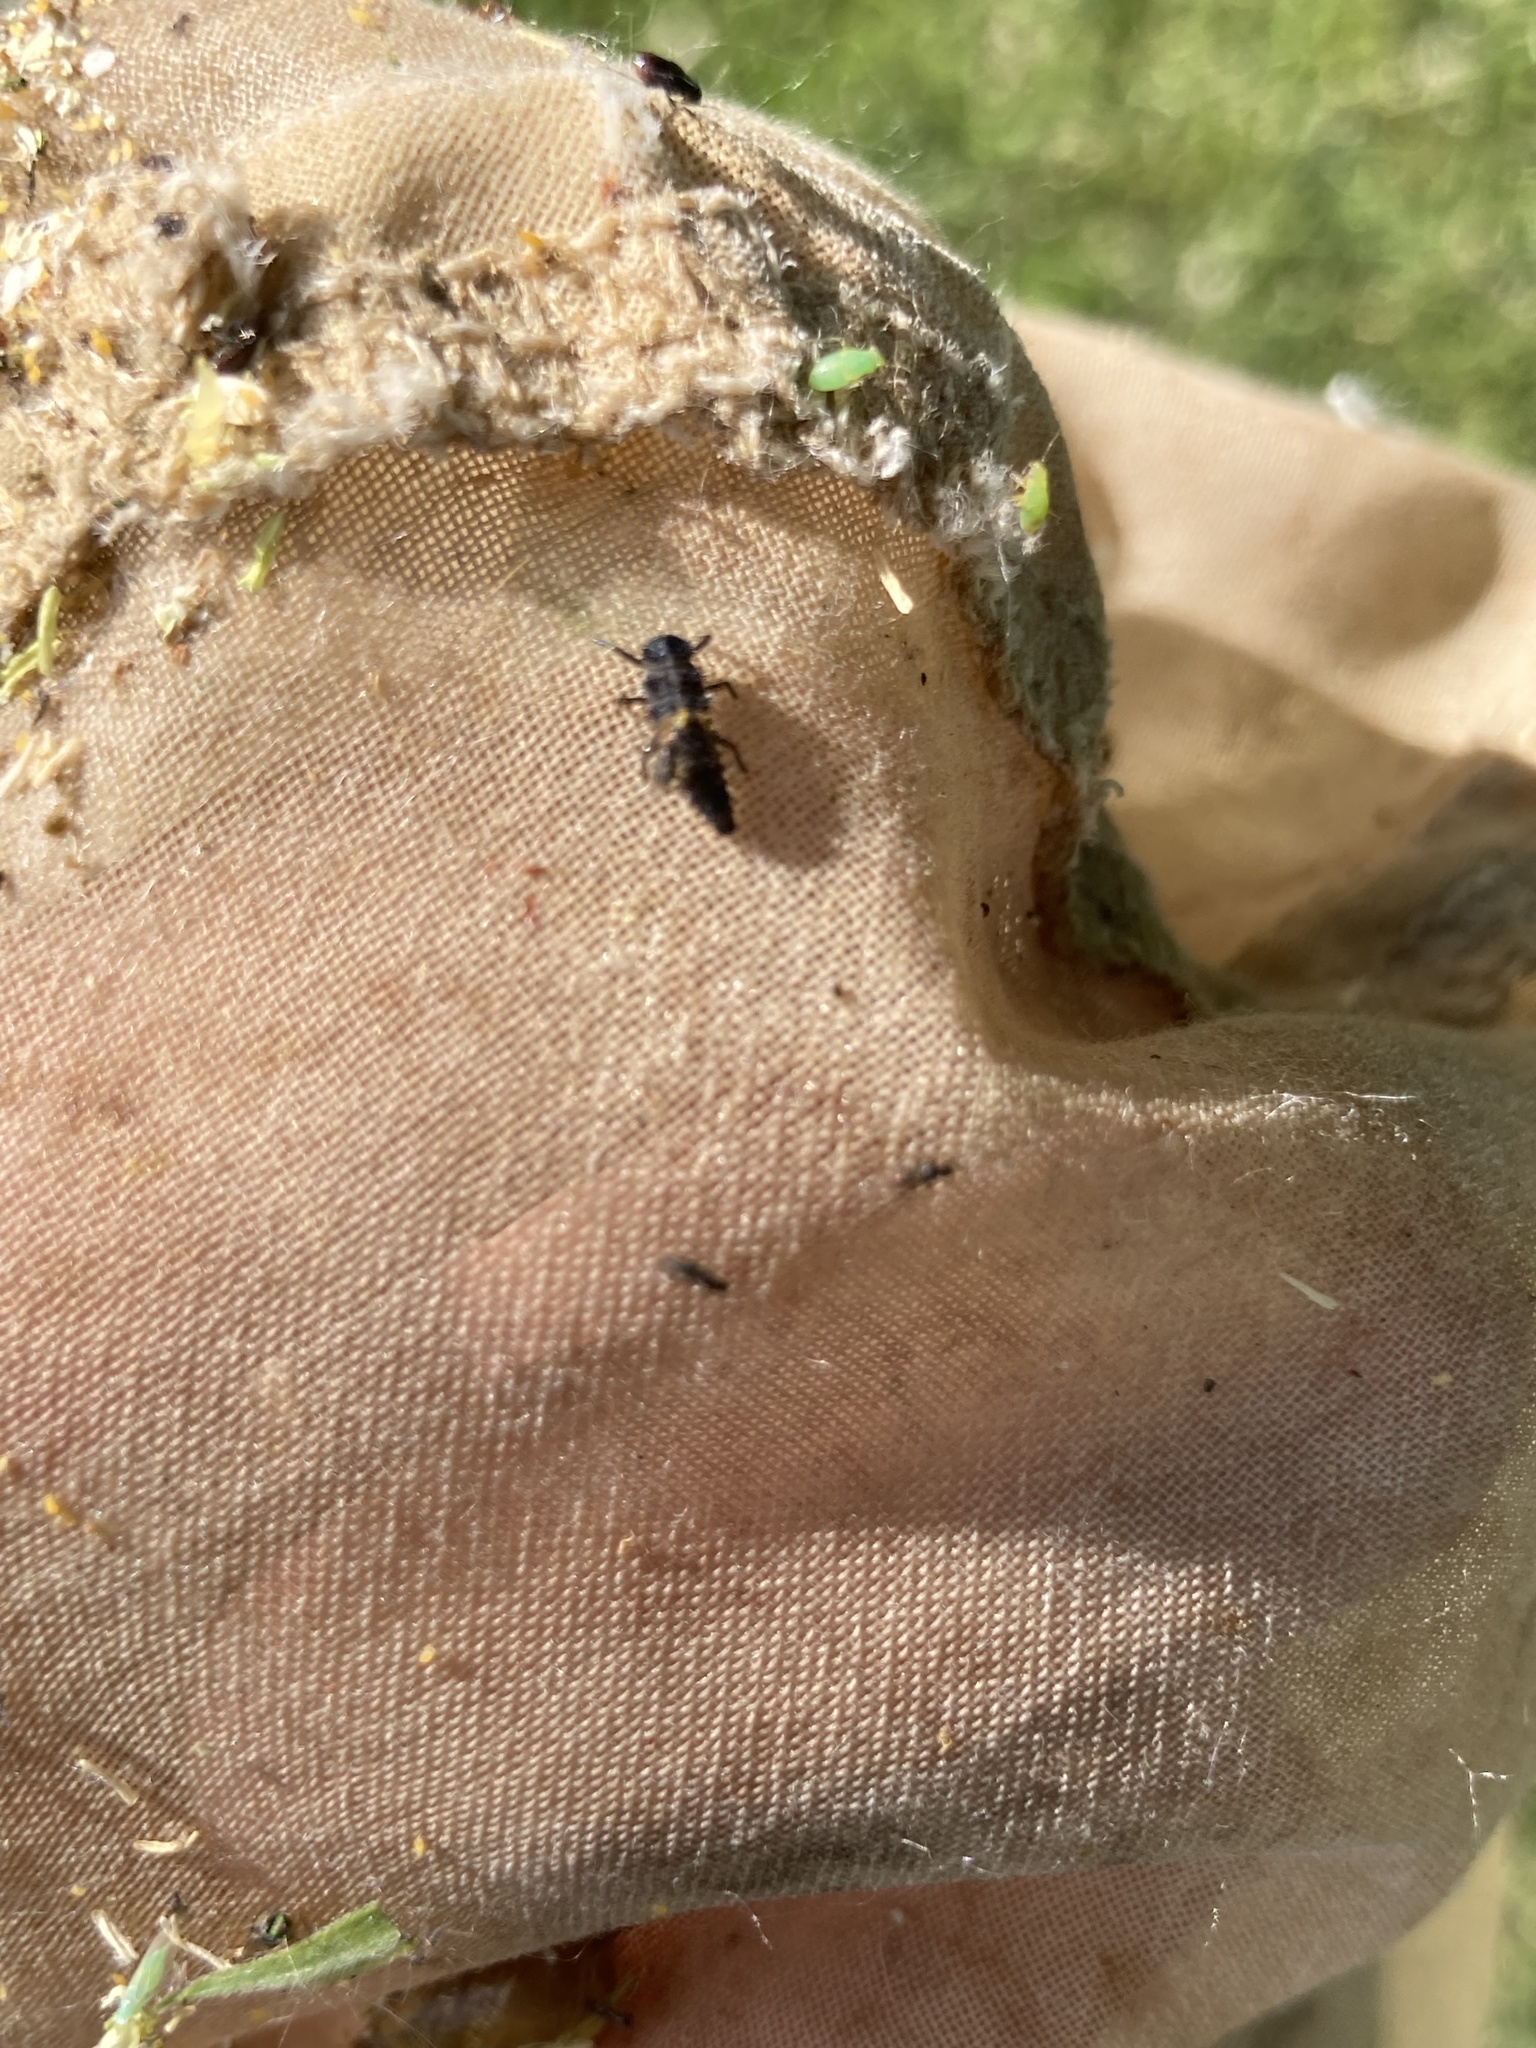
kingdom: Animalia
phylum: Arthropoda
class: Insecta
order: Coleoptera
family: Coccinellidae
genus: Harmonia
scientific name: Harmonia axyridis
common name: Harlequin ladybird
